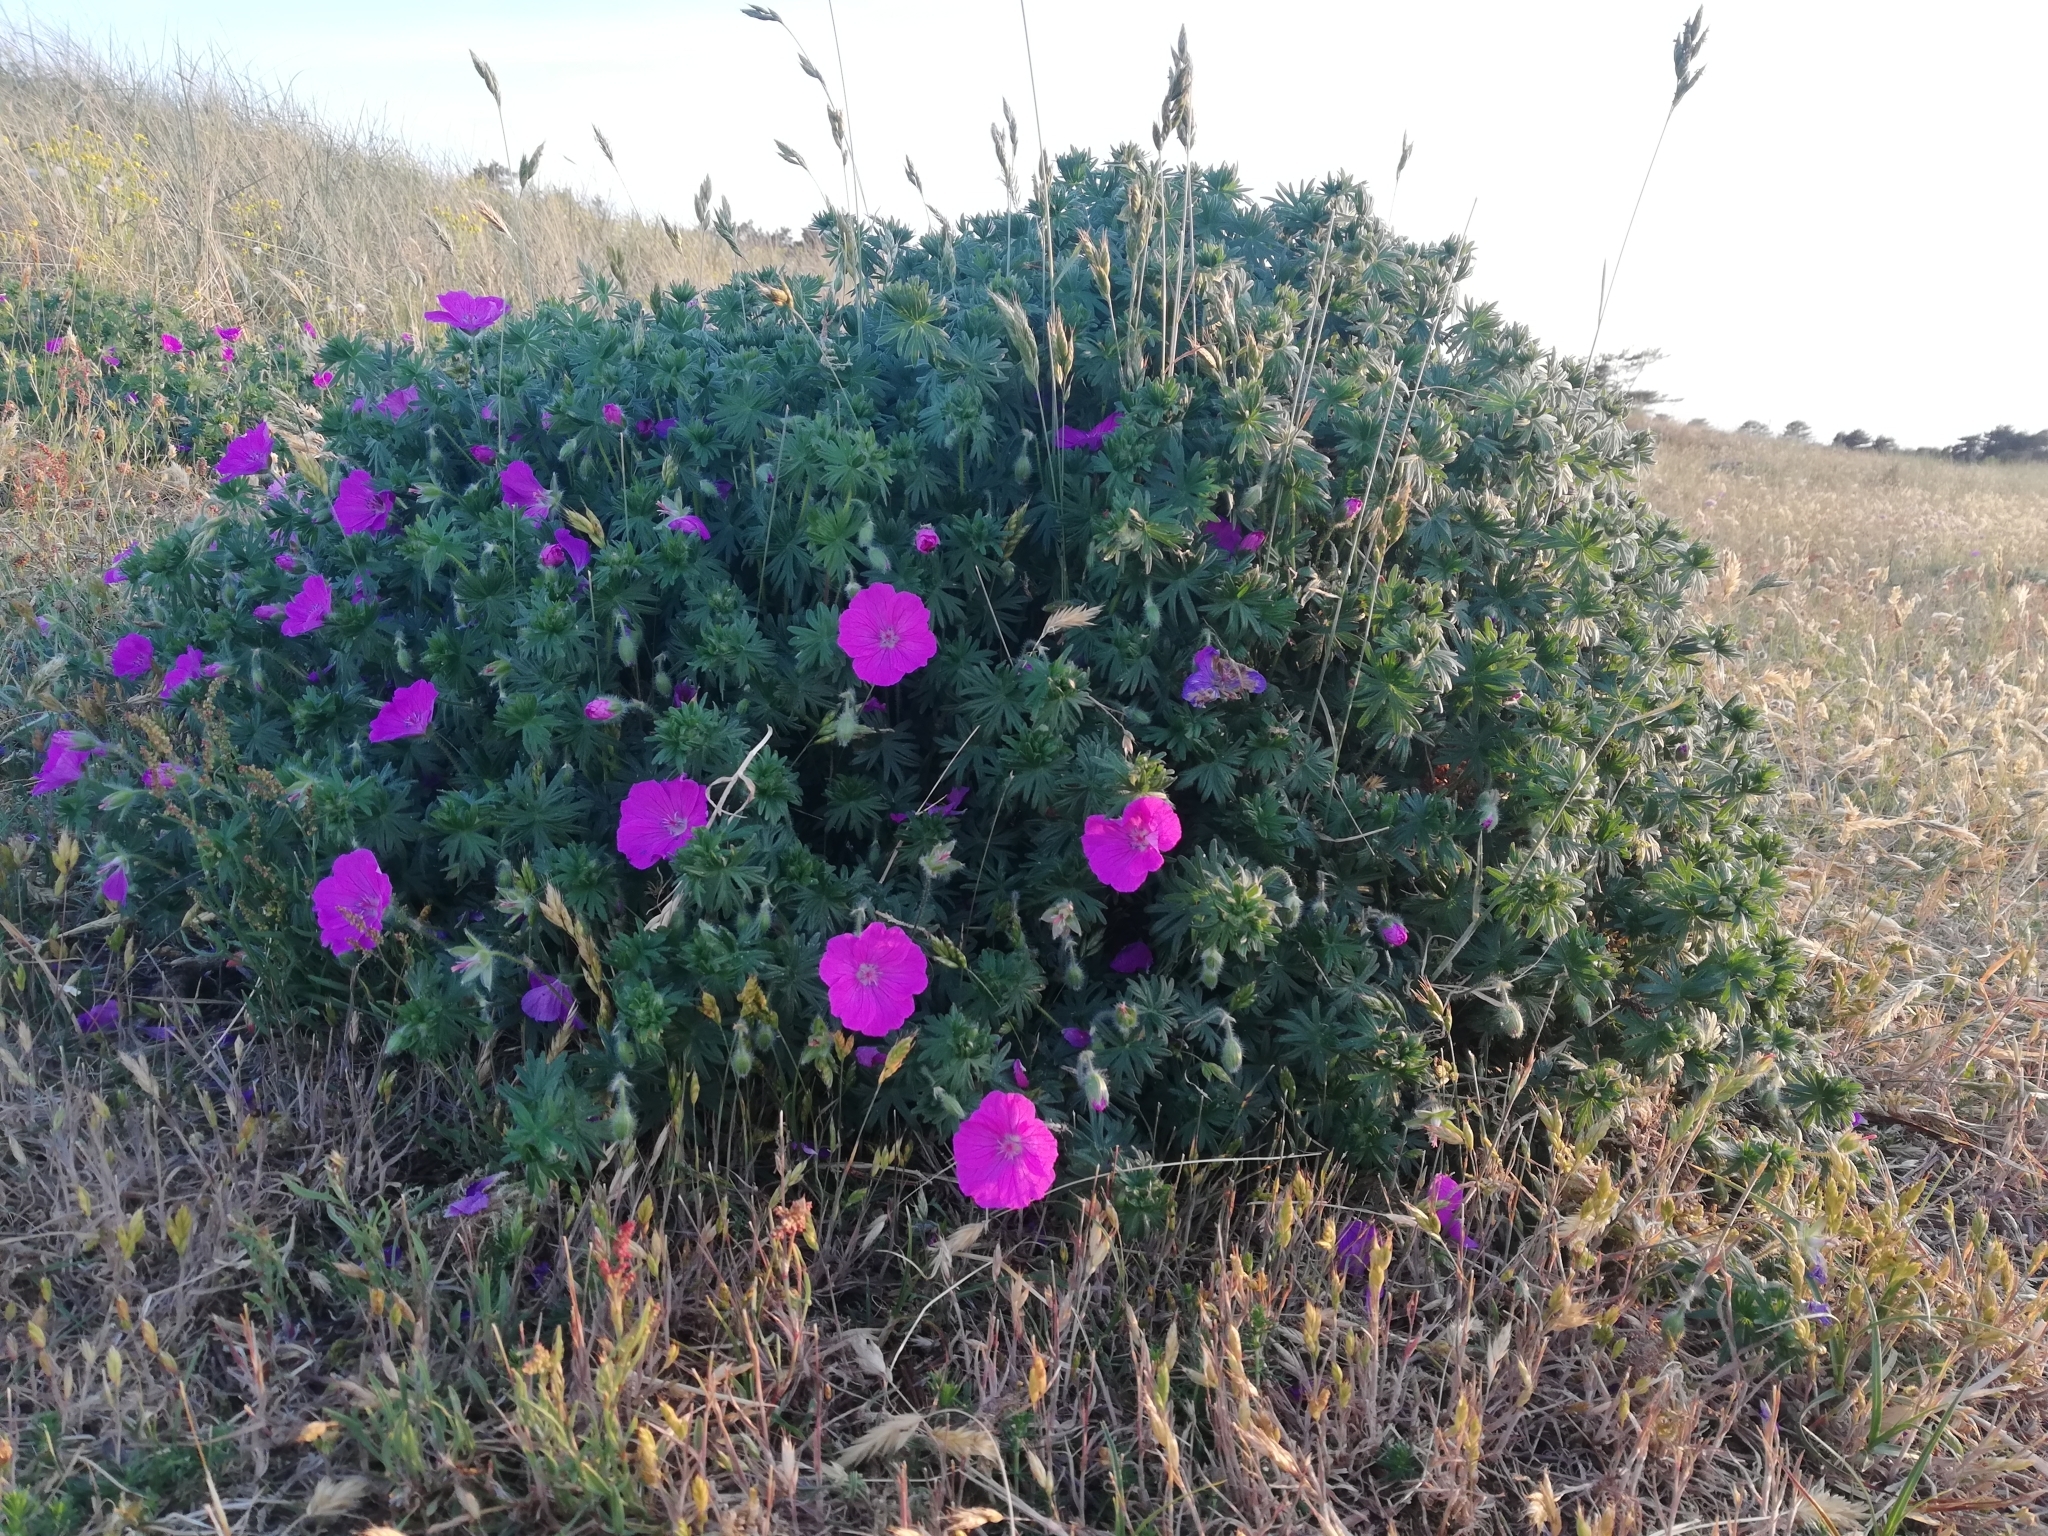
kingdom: Plantae
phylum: Tracheophyta
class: Magnoliopsida
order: Geraniales
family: Geraniaceae
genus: Geranium
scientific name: Geranium sanguineum
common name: Bloody crane's-bill
